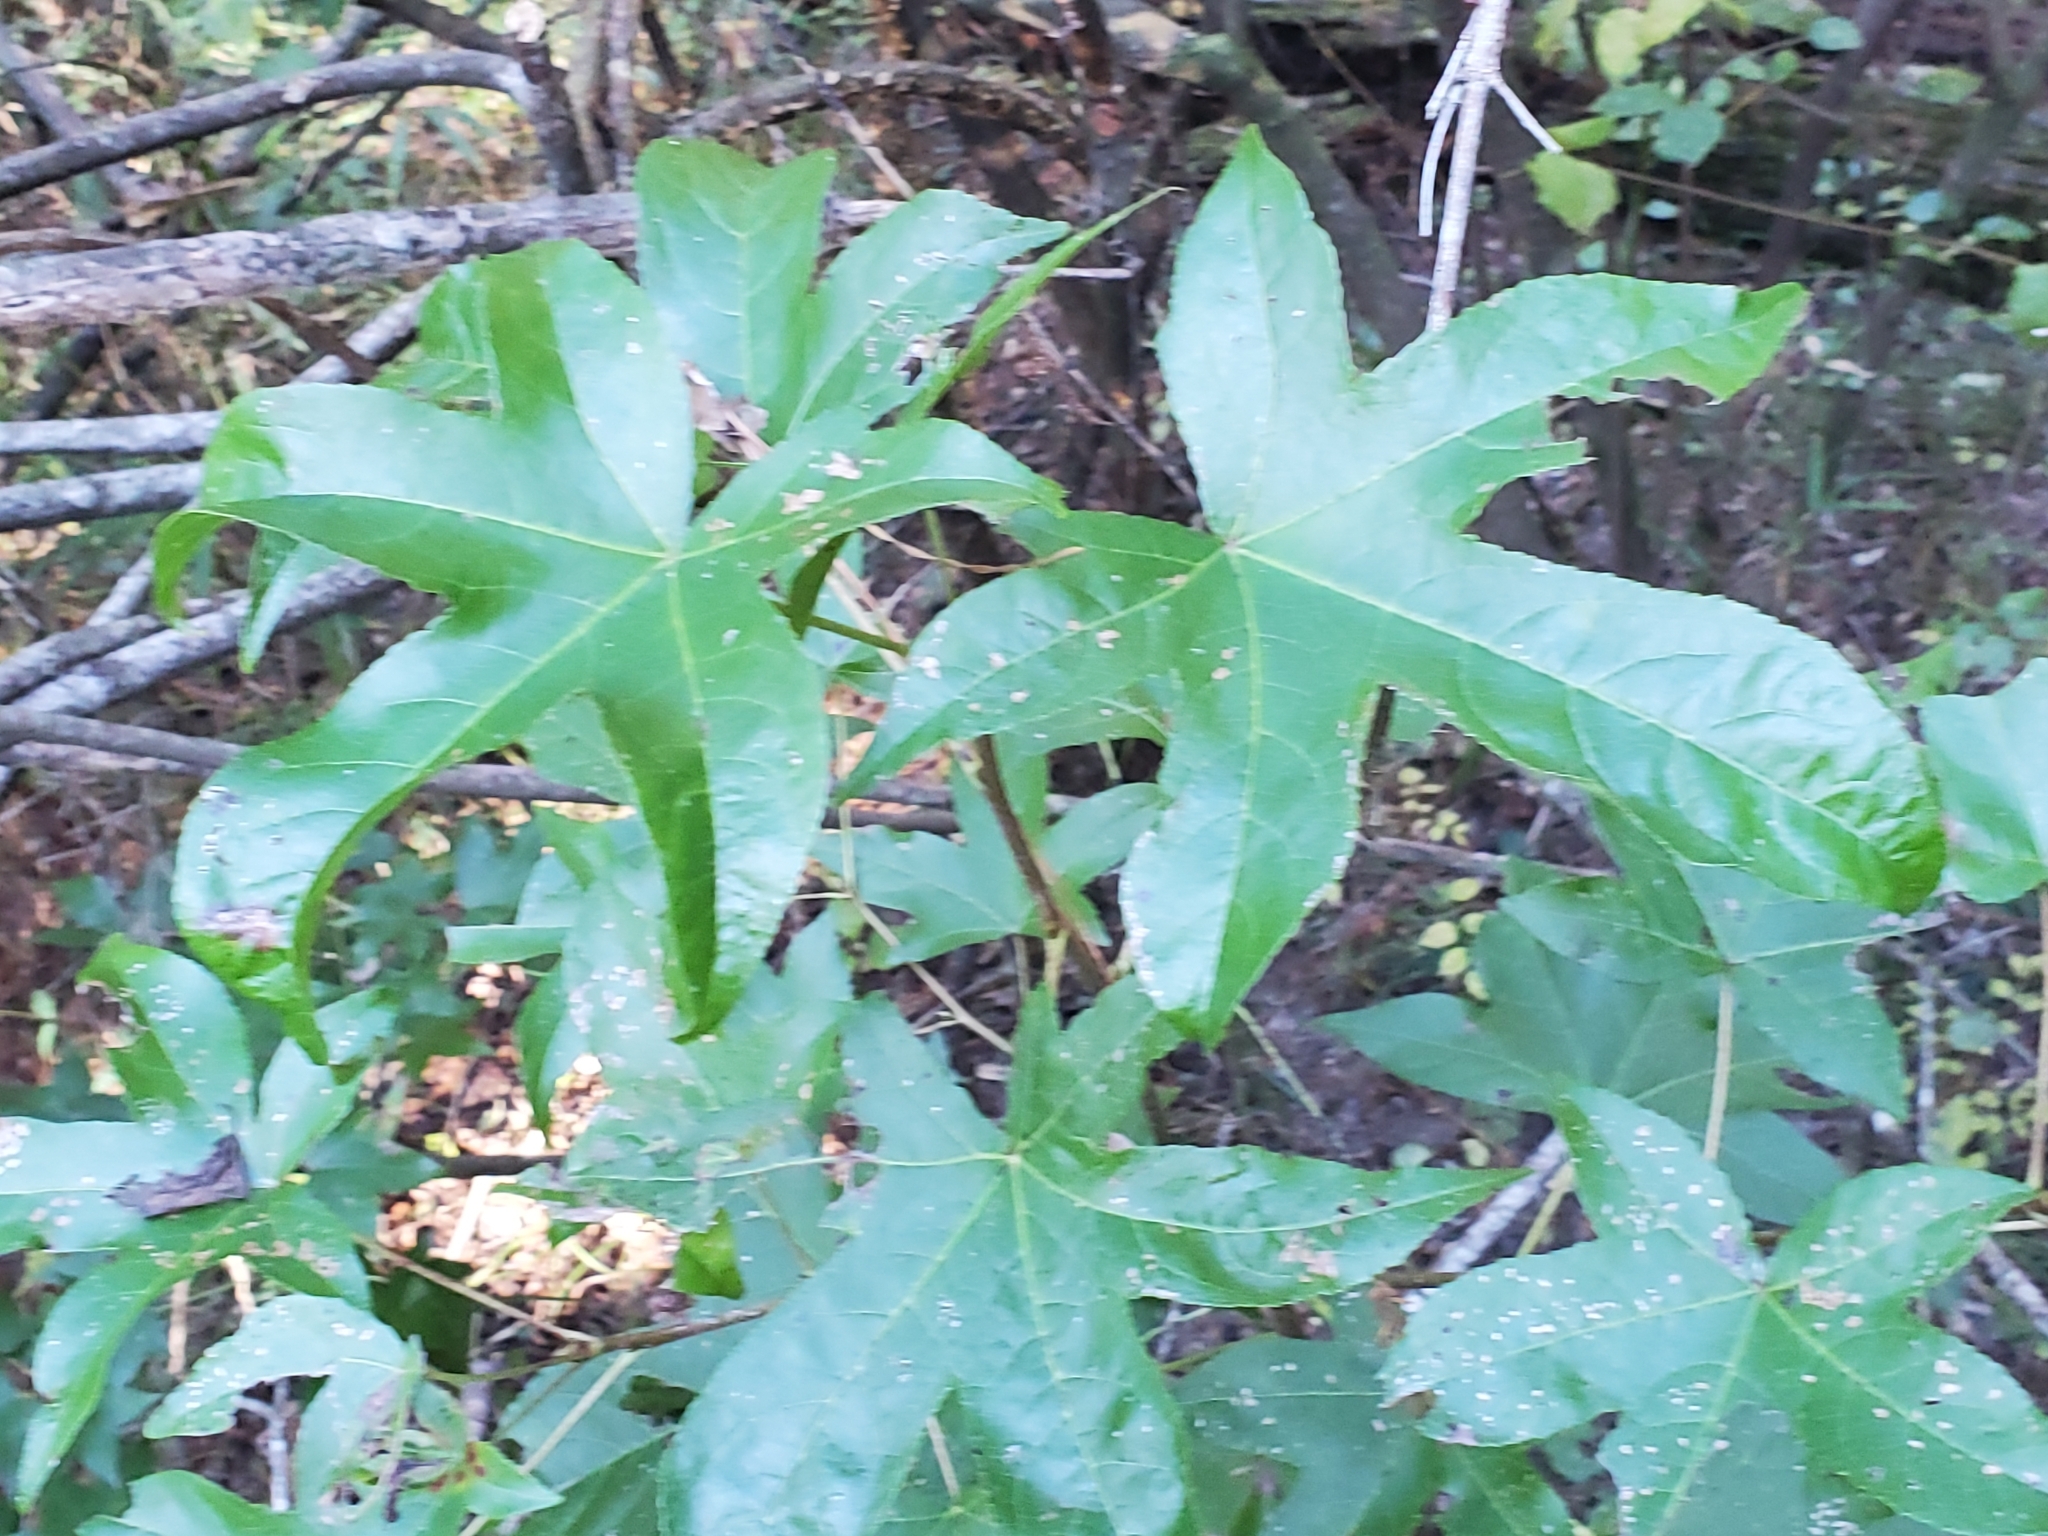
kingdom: Plantae
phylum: Tracheophyta
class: Magnoliopsida
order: Saxifragales
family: Altingiaceae
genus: Liquidambar
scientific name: Liquidambar styraciflua
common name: Sweet gum
